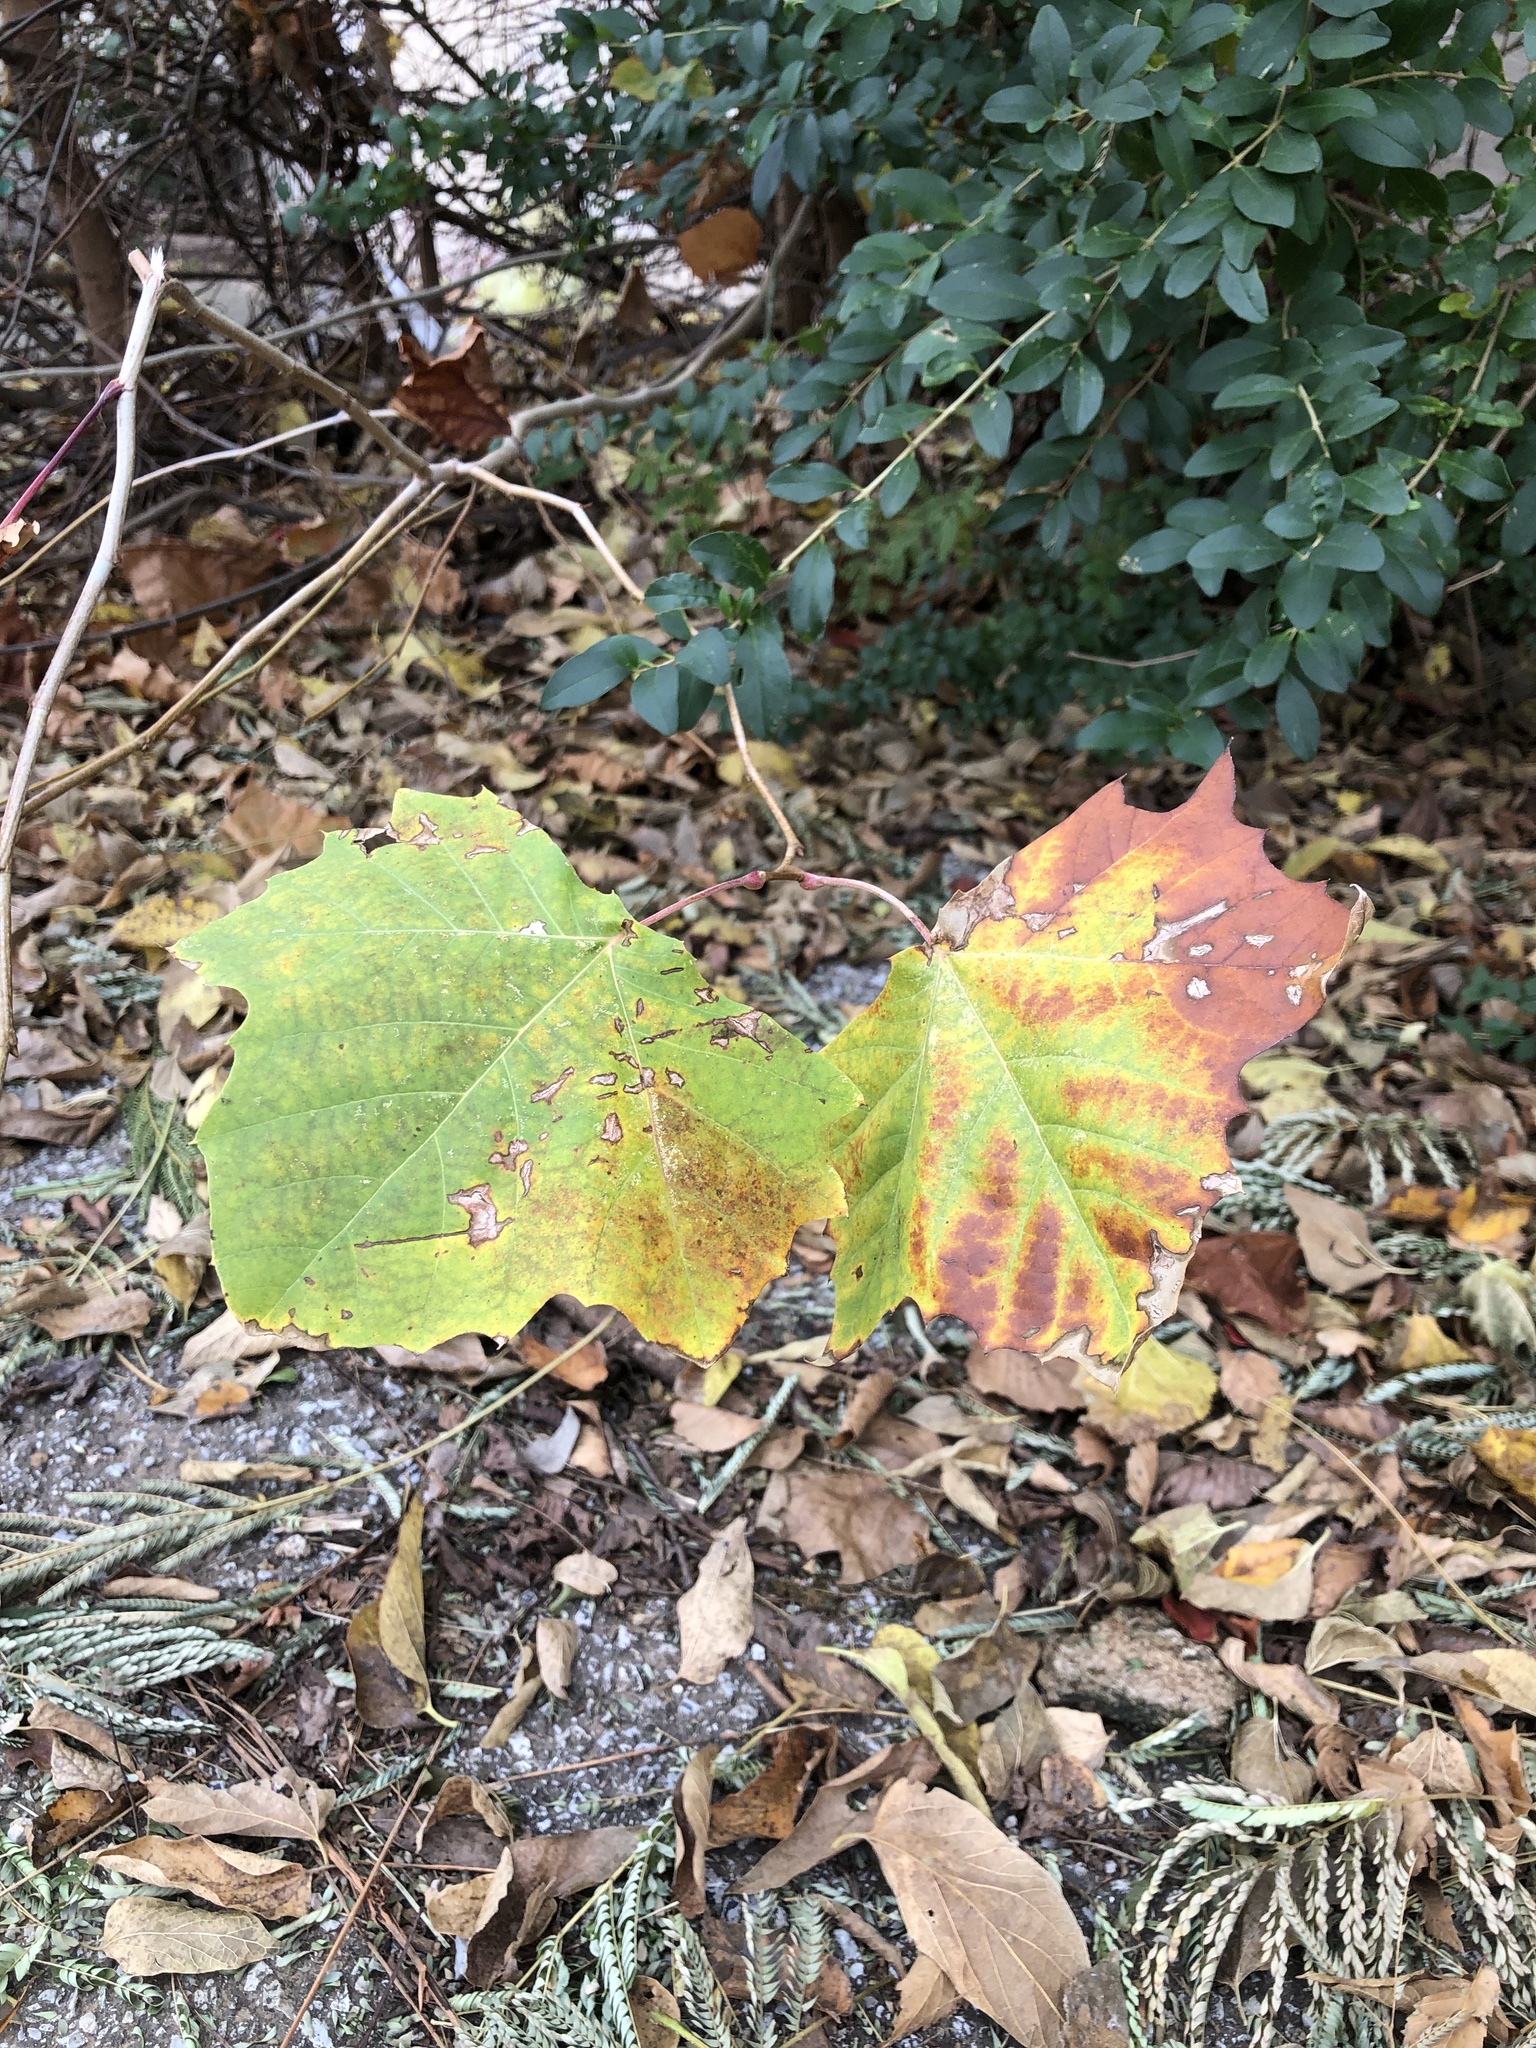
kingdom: Plantae
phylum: Tracheophyta
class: Magnoliopsida
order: Proteales
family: Platanaceae
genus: Platanus
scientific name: Platanus occidentalis
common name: American sycamore
